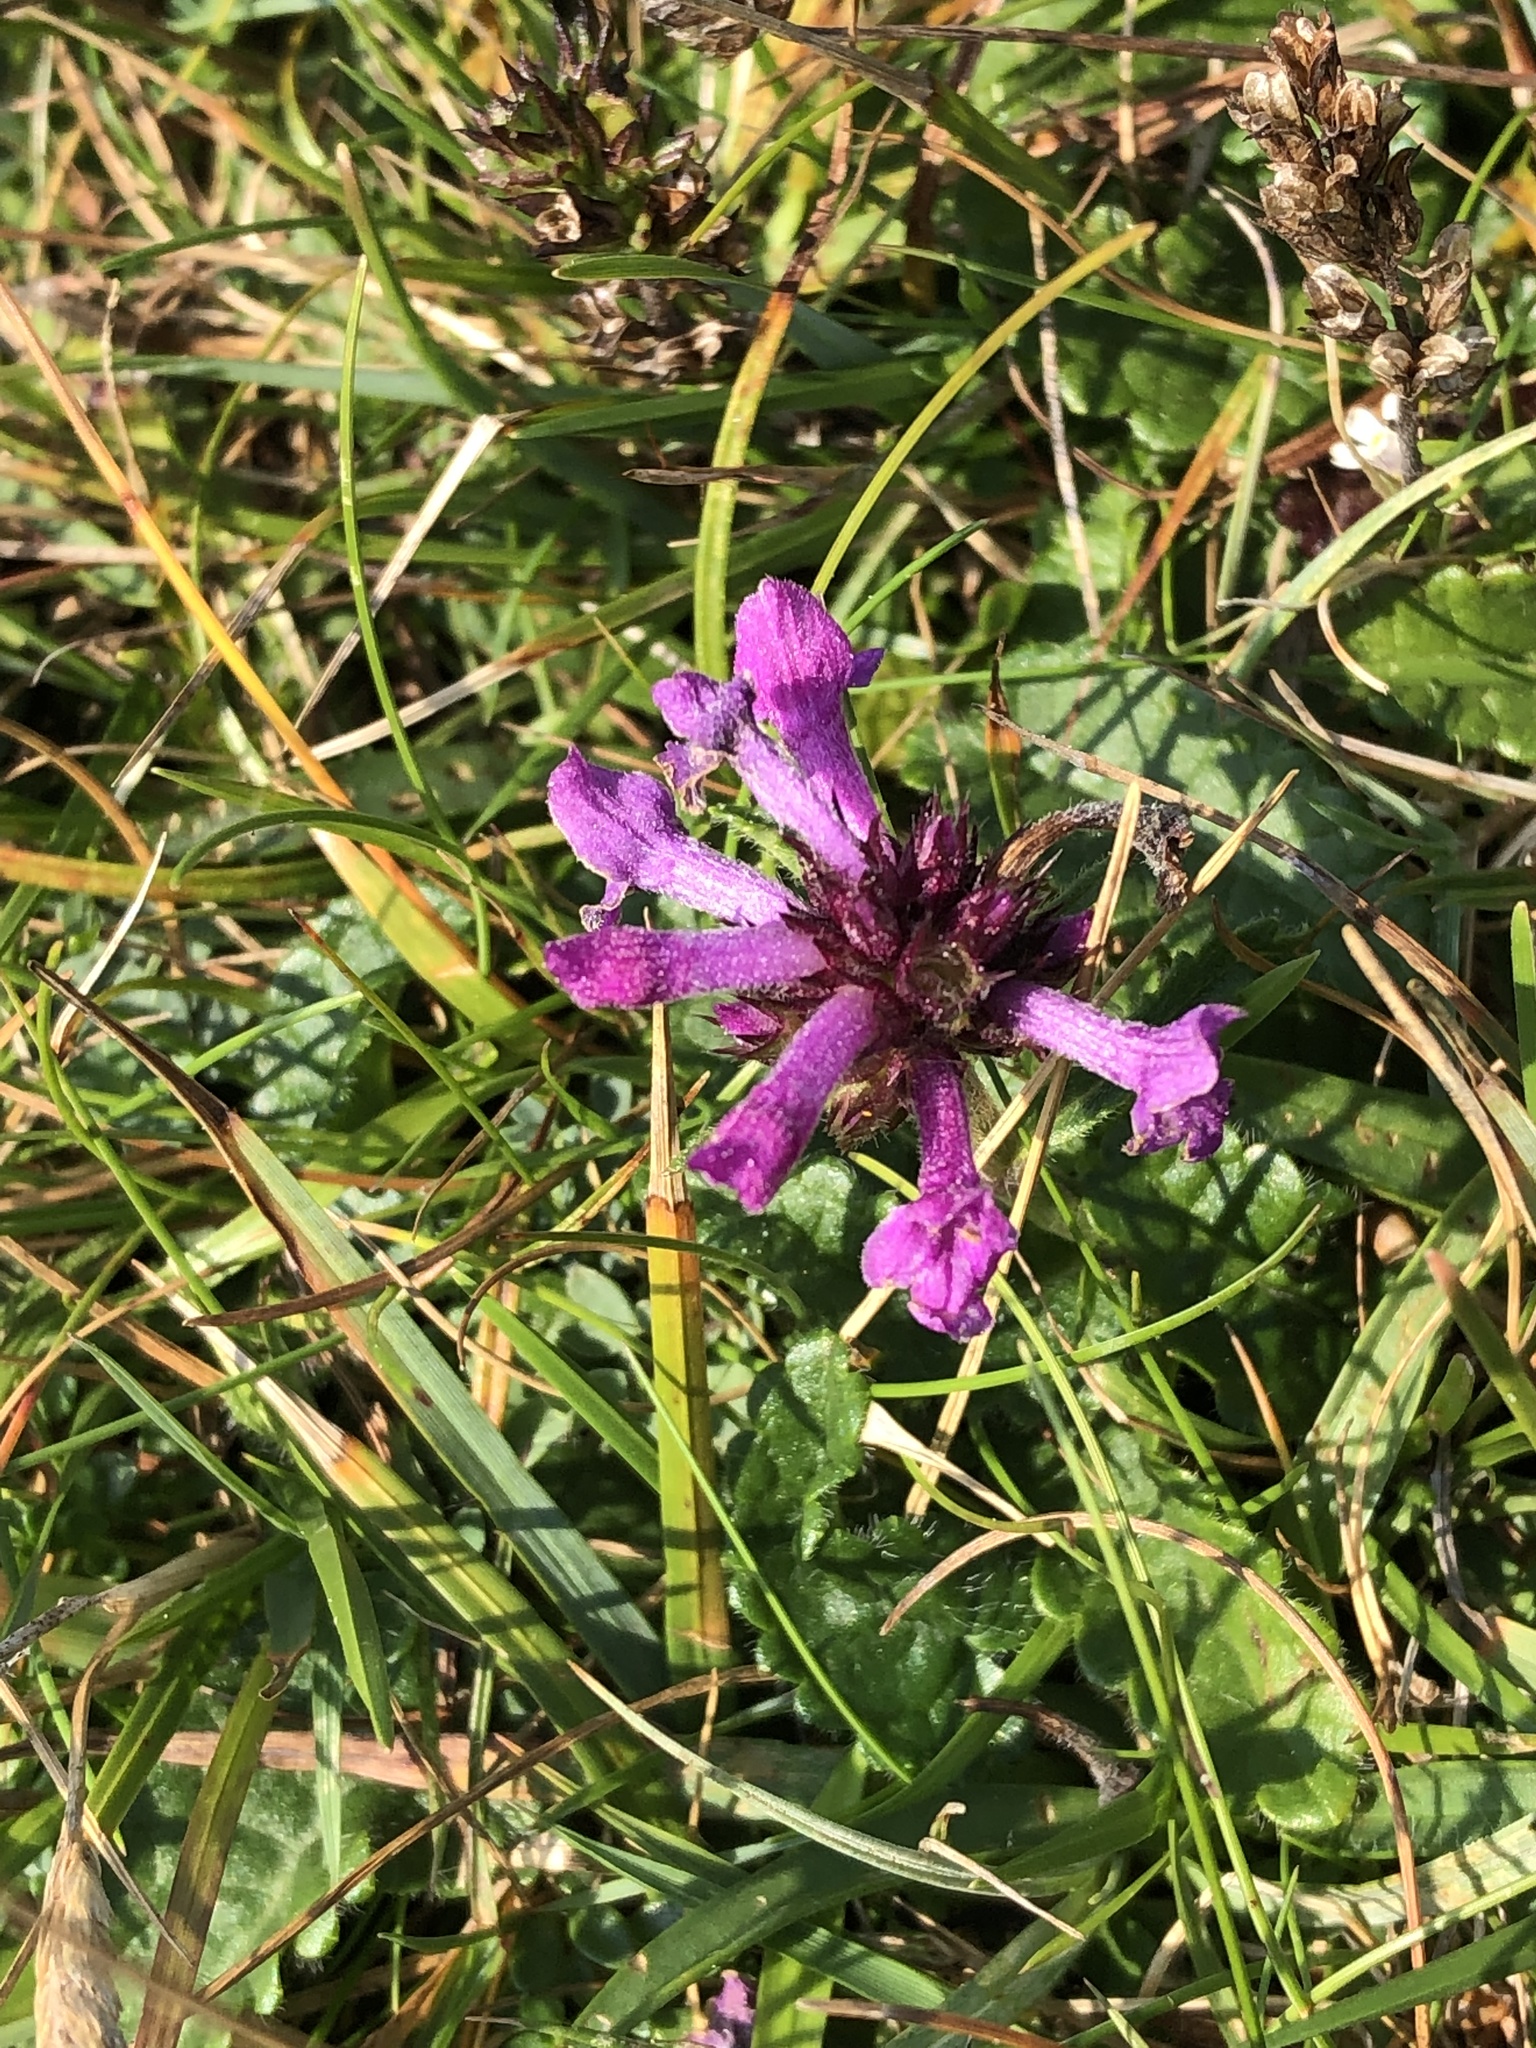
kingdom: Plantae
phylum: Tracheophyta
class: Magnoliopsida
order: Lamiales
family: Lamiaceae
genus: Betonica
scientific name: Betonica officinalis
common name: Bishop's-wort
